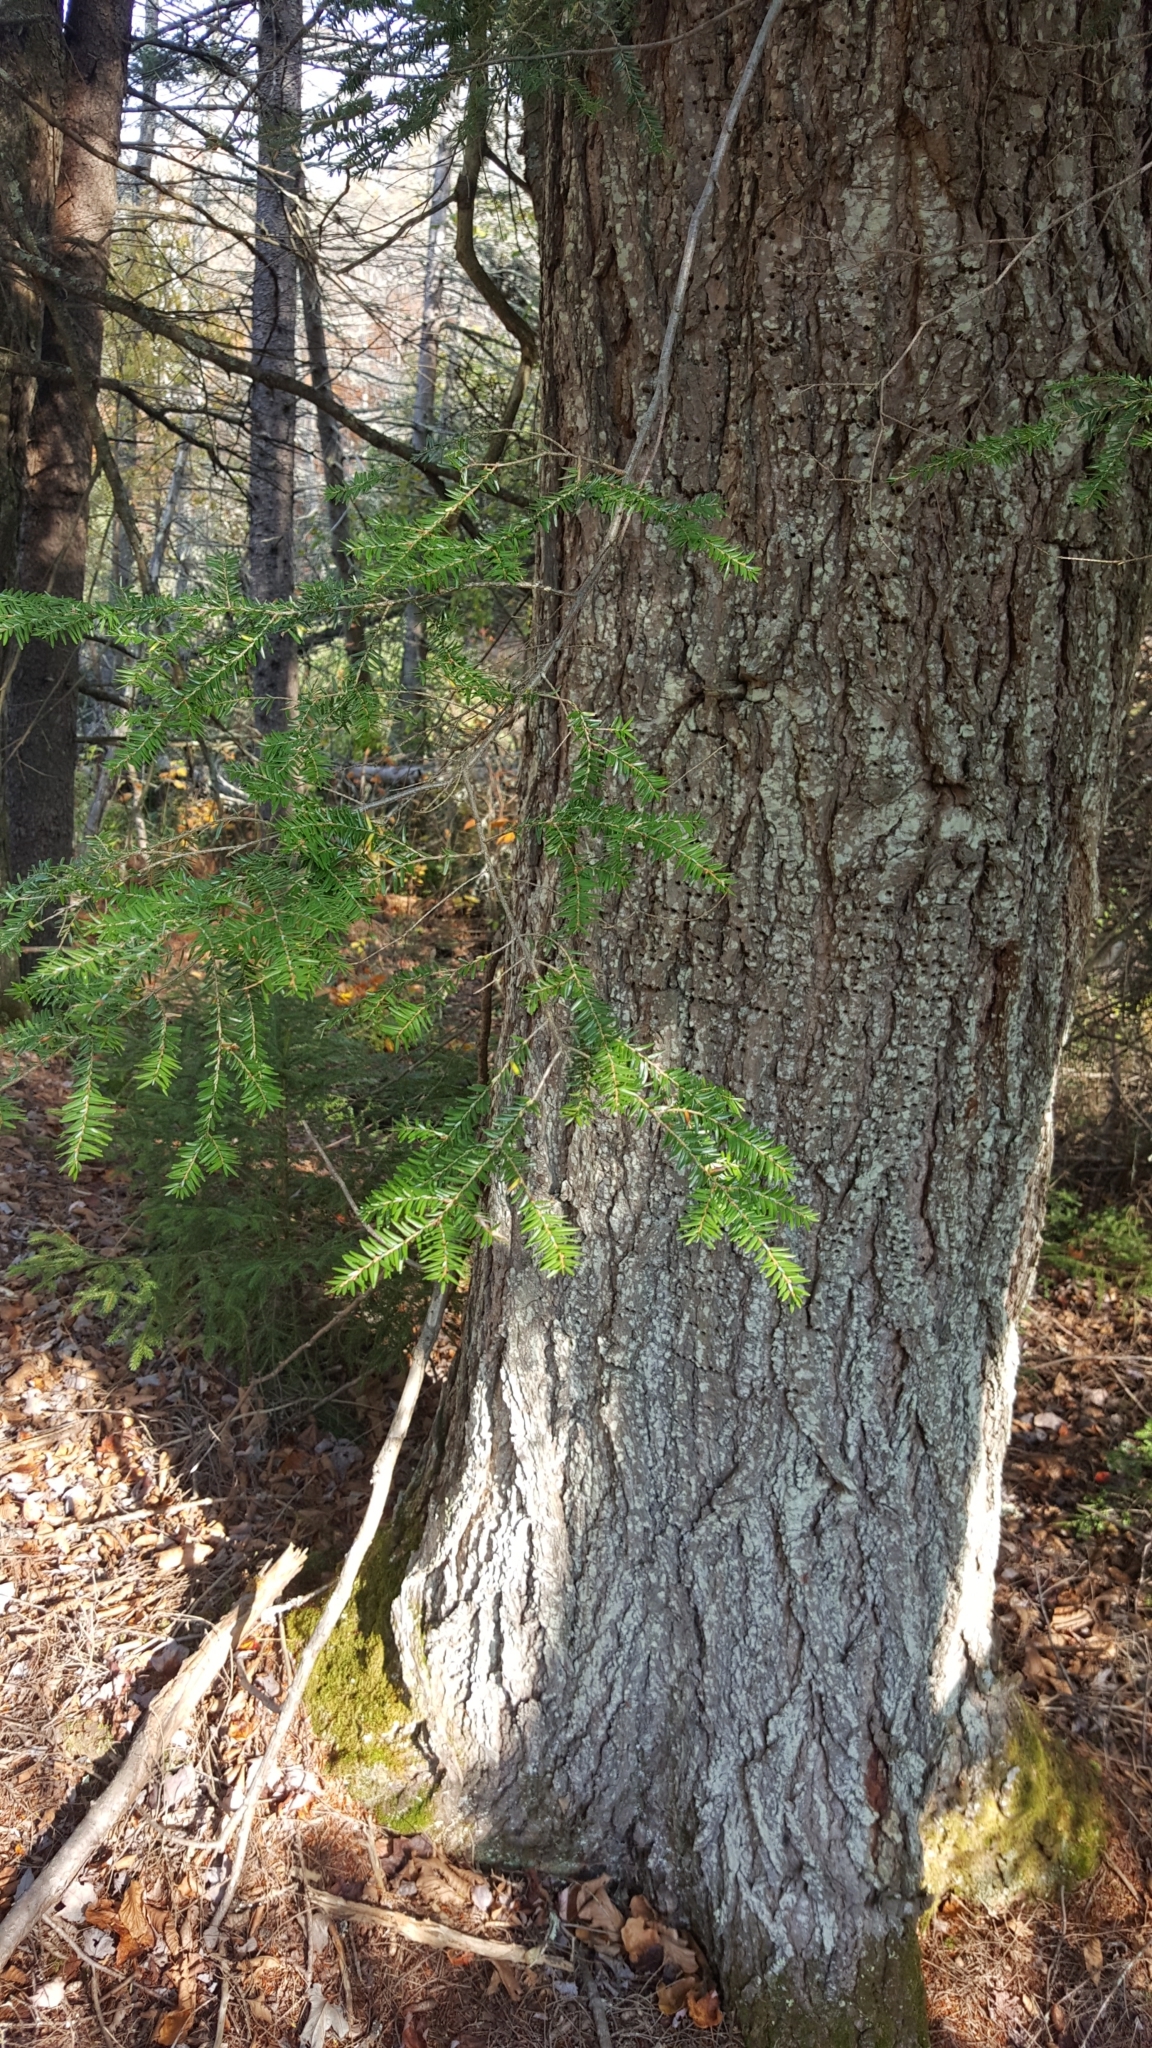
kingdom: Plantae
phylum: Tracheophyta
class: Pinopsida
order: Pinales
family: Pinaceae
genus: Tsuga
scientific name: Tsuga canadensis
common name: Eastern hemlock
